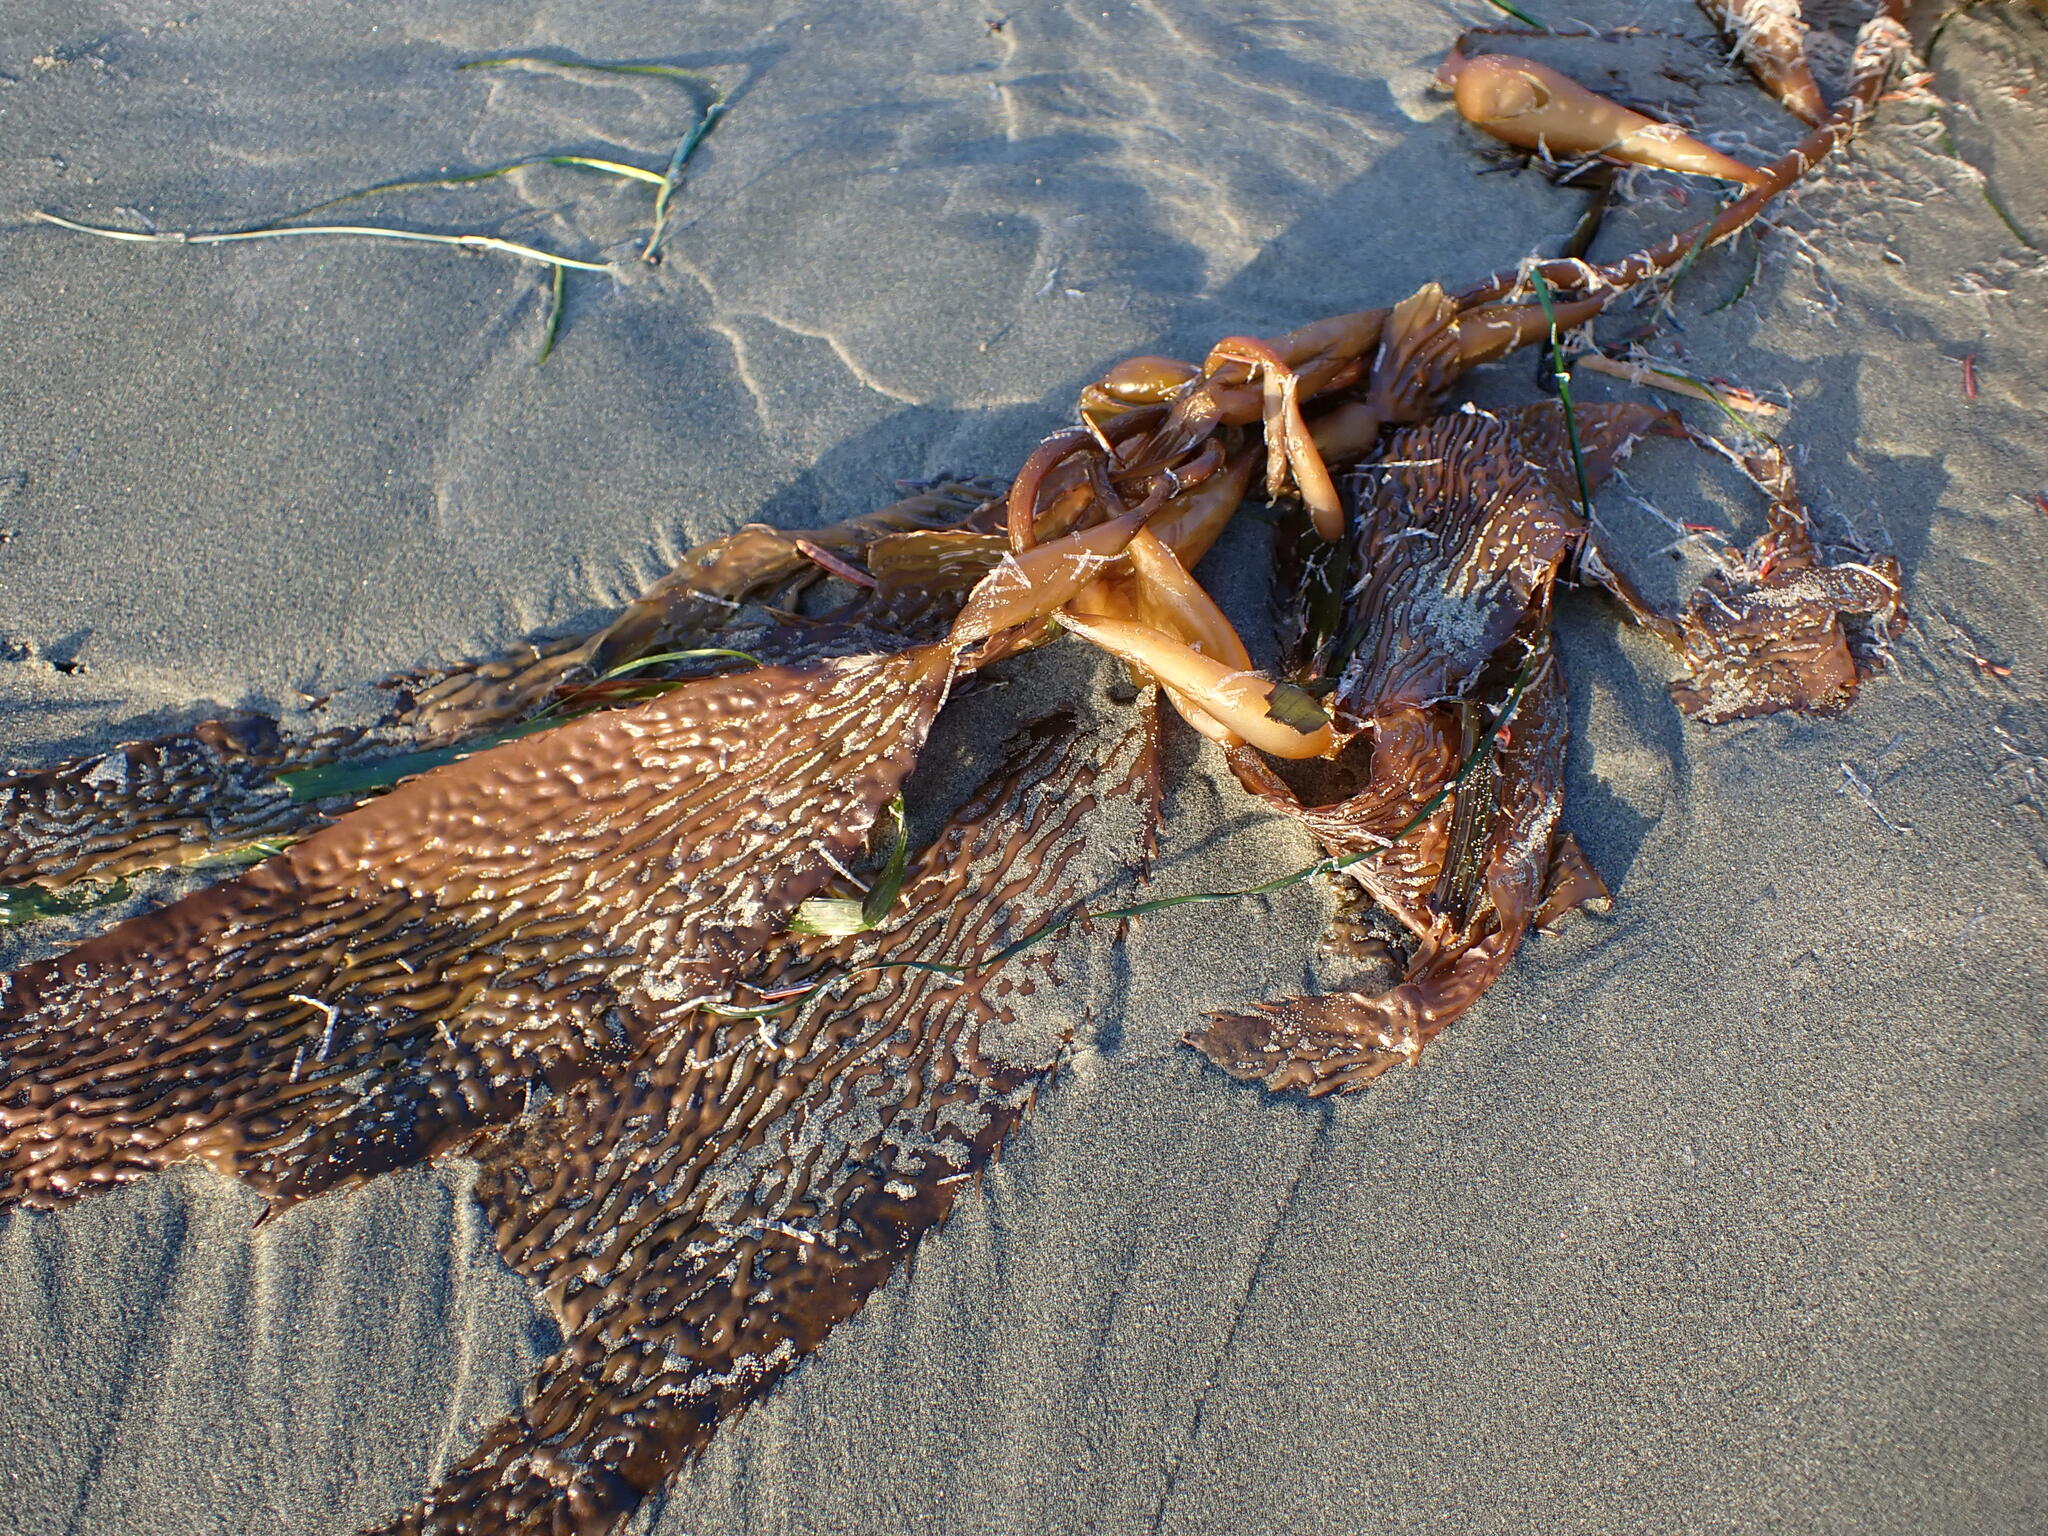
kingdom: Chromista
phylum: Ochrophyta
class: Phaeophyceae
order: Laminariales
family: Laminariaceae
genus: Macrocystis
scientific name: Macrocystis pyrifera
